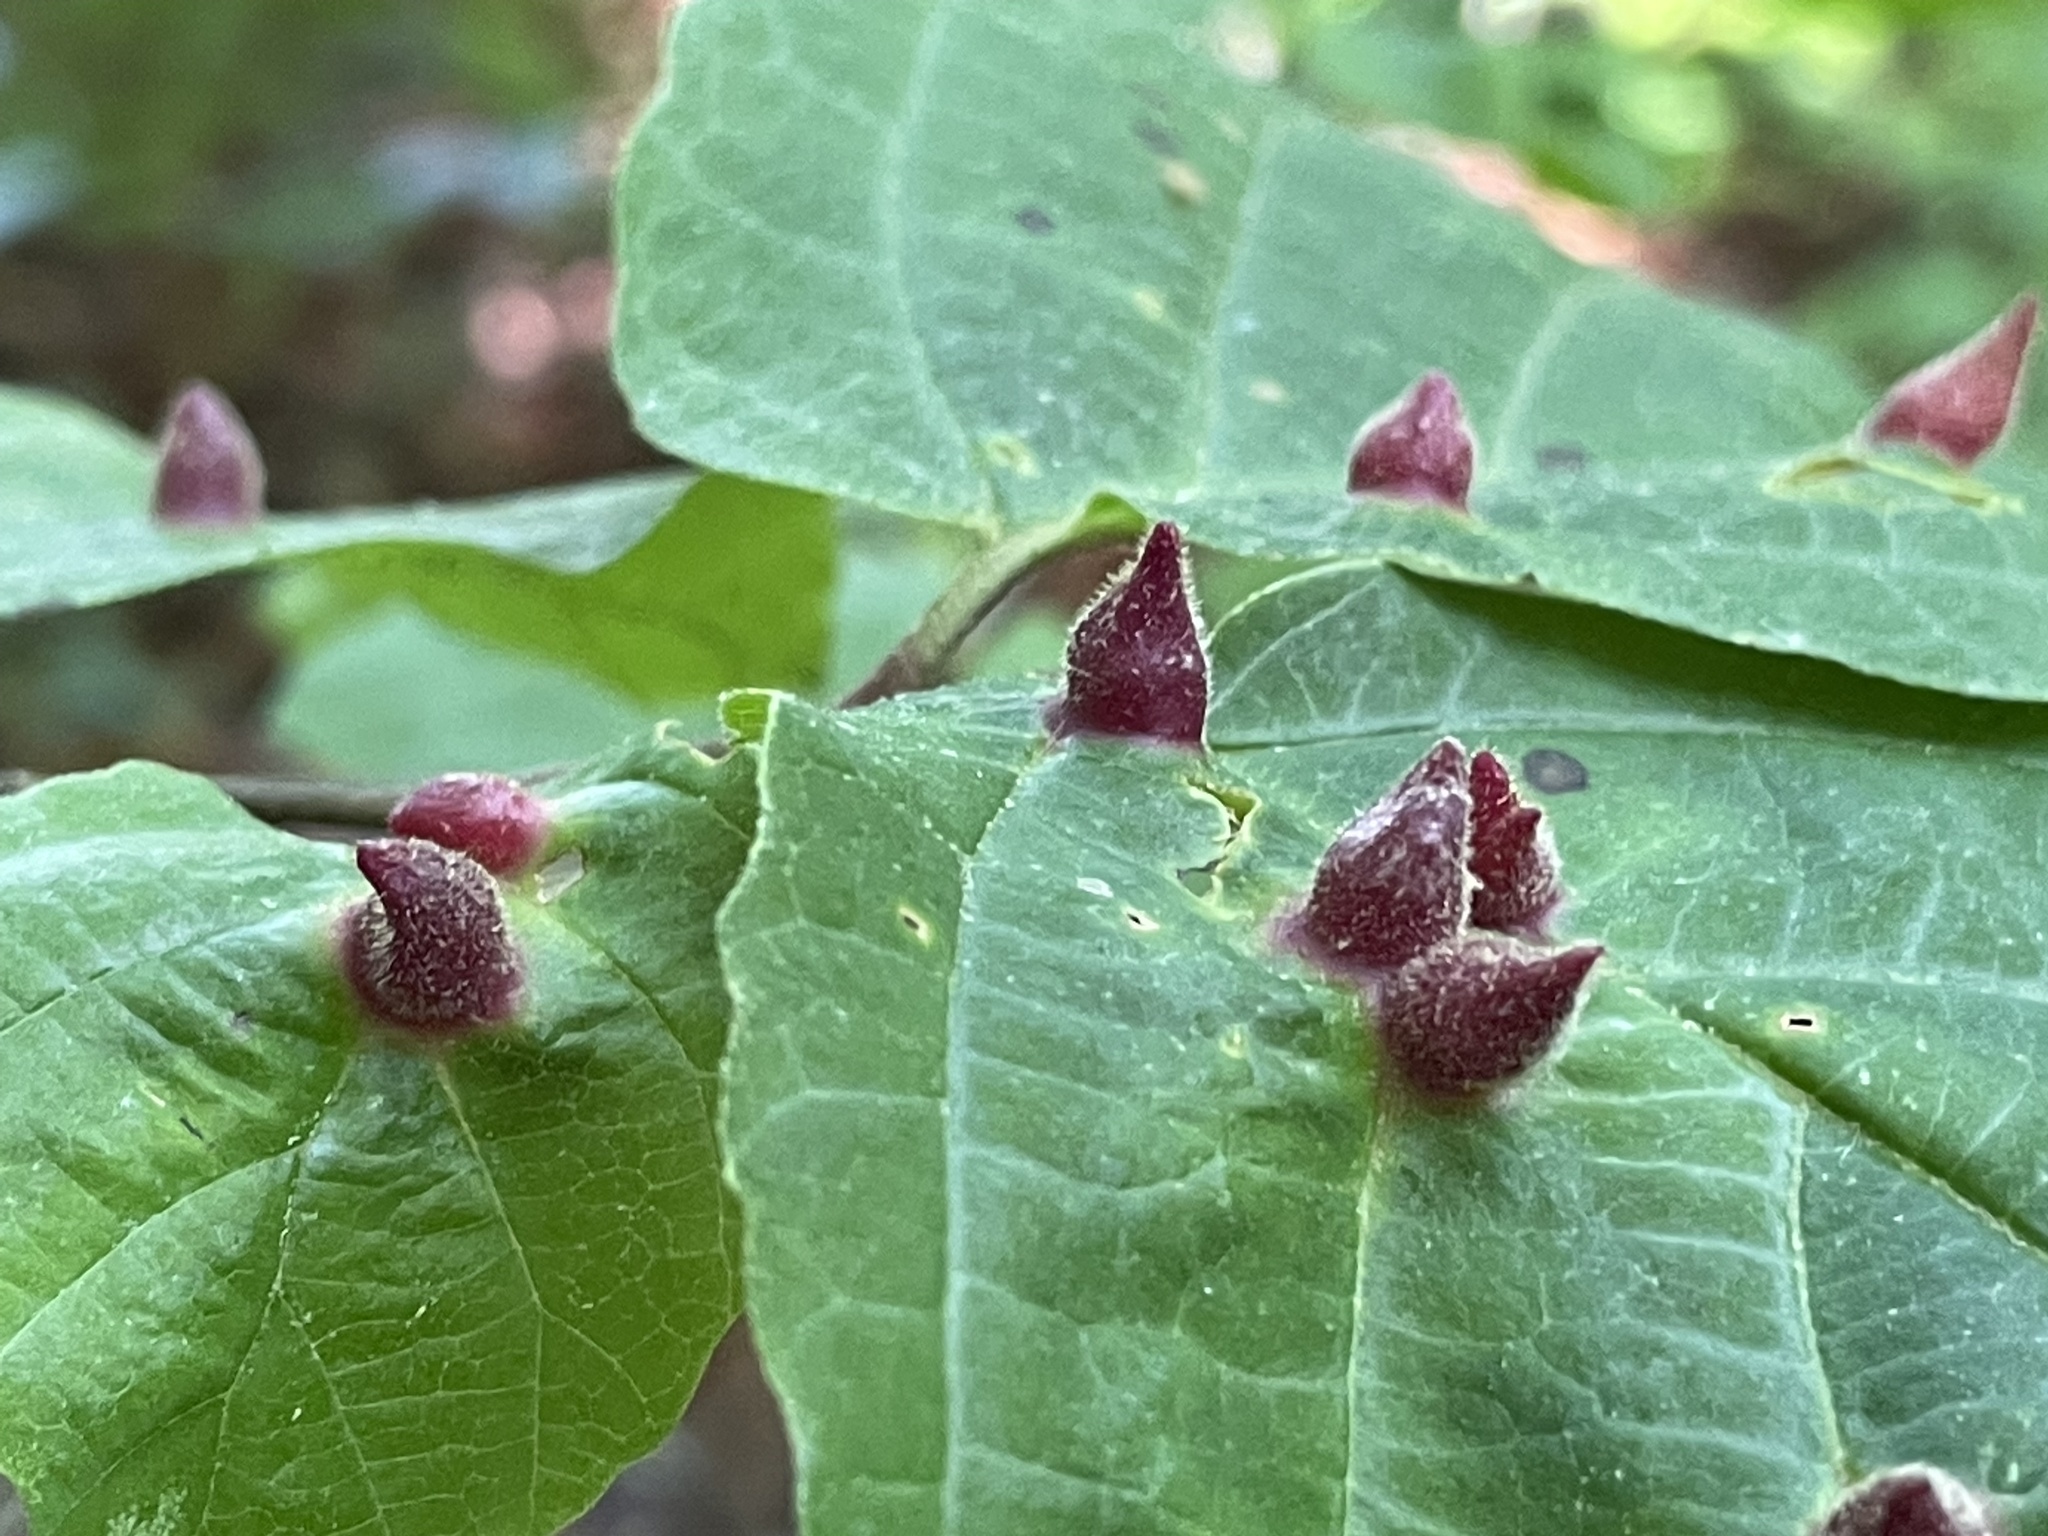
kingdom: Animalia
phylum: Arthropoda
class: Insecta
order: Hemiptera
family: Aphididae
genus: Hormaphis
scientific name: Hormaphis hamamelidis
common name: Witch-hazel cone gall aphid
